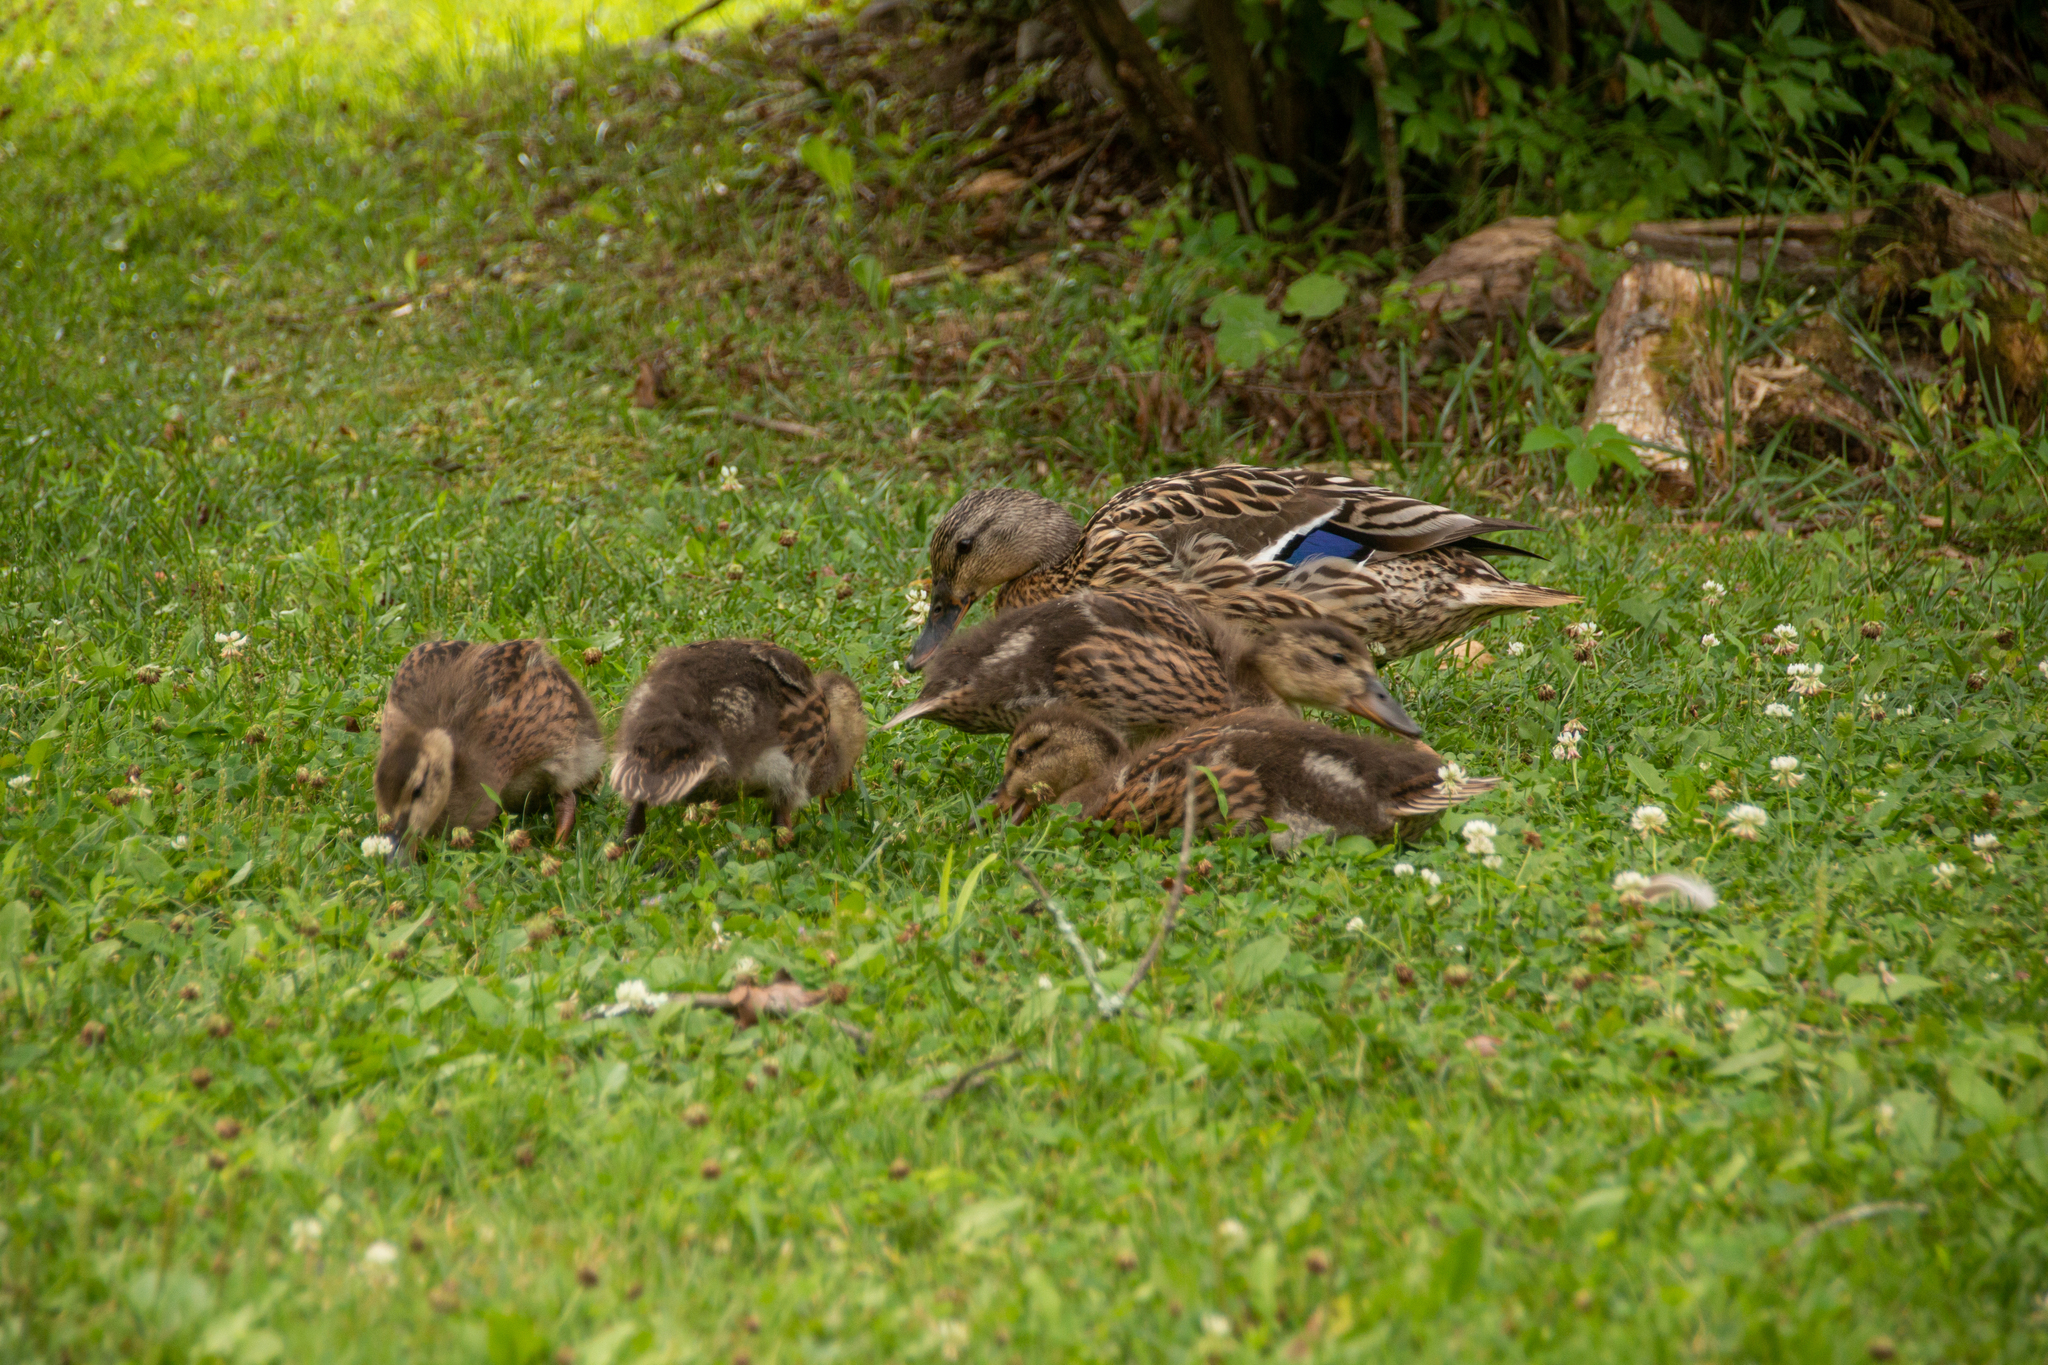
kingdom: Animalia
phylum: Chordata
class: Aves
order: Anseriformes
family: Anatidae
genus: Anas
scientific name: Anas platyrhynchos
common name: Mallard
